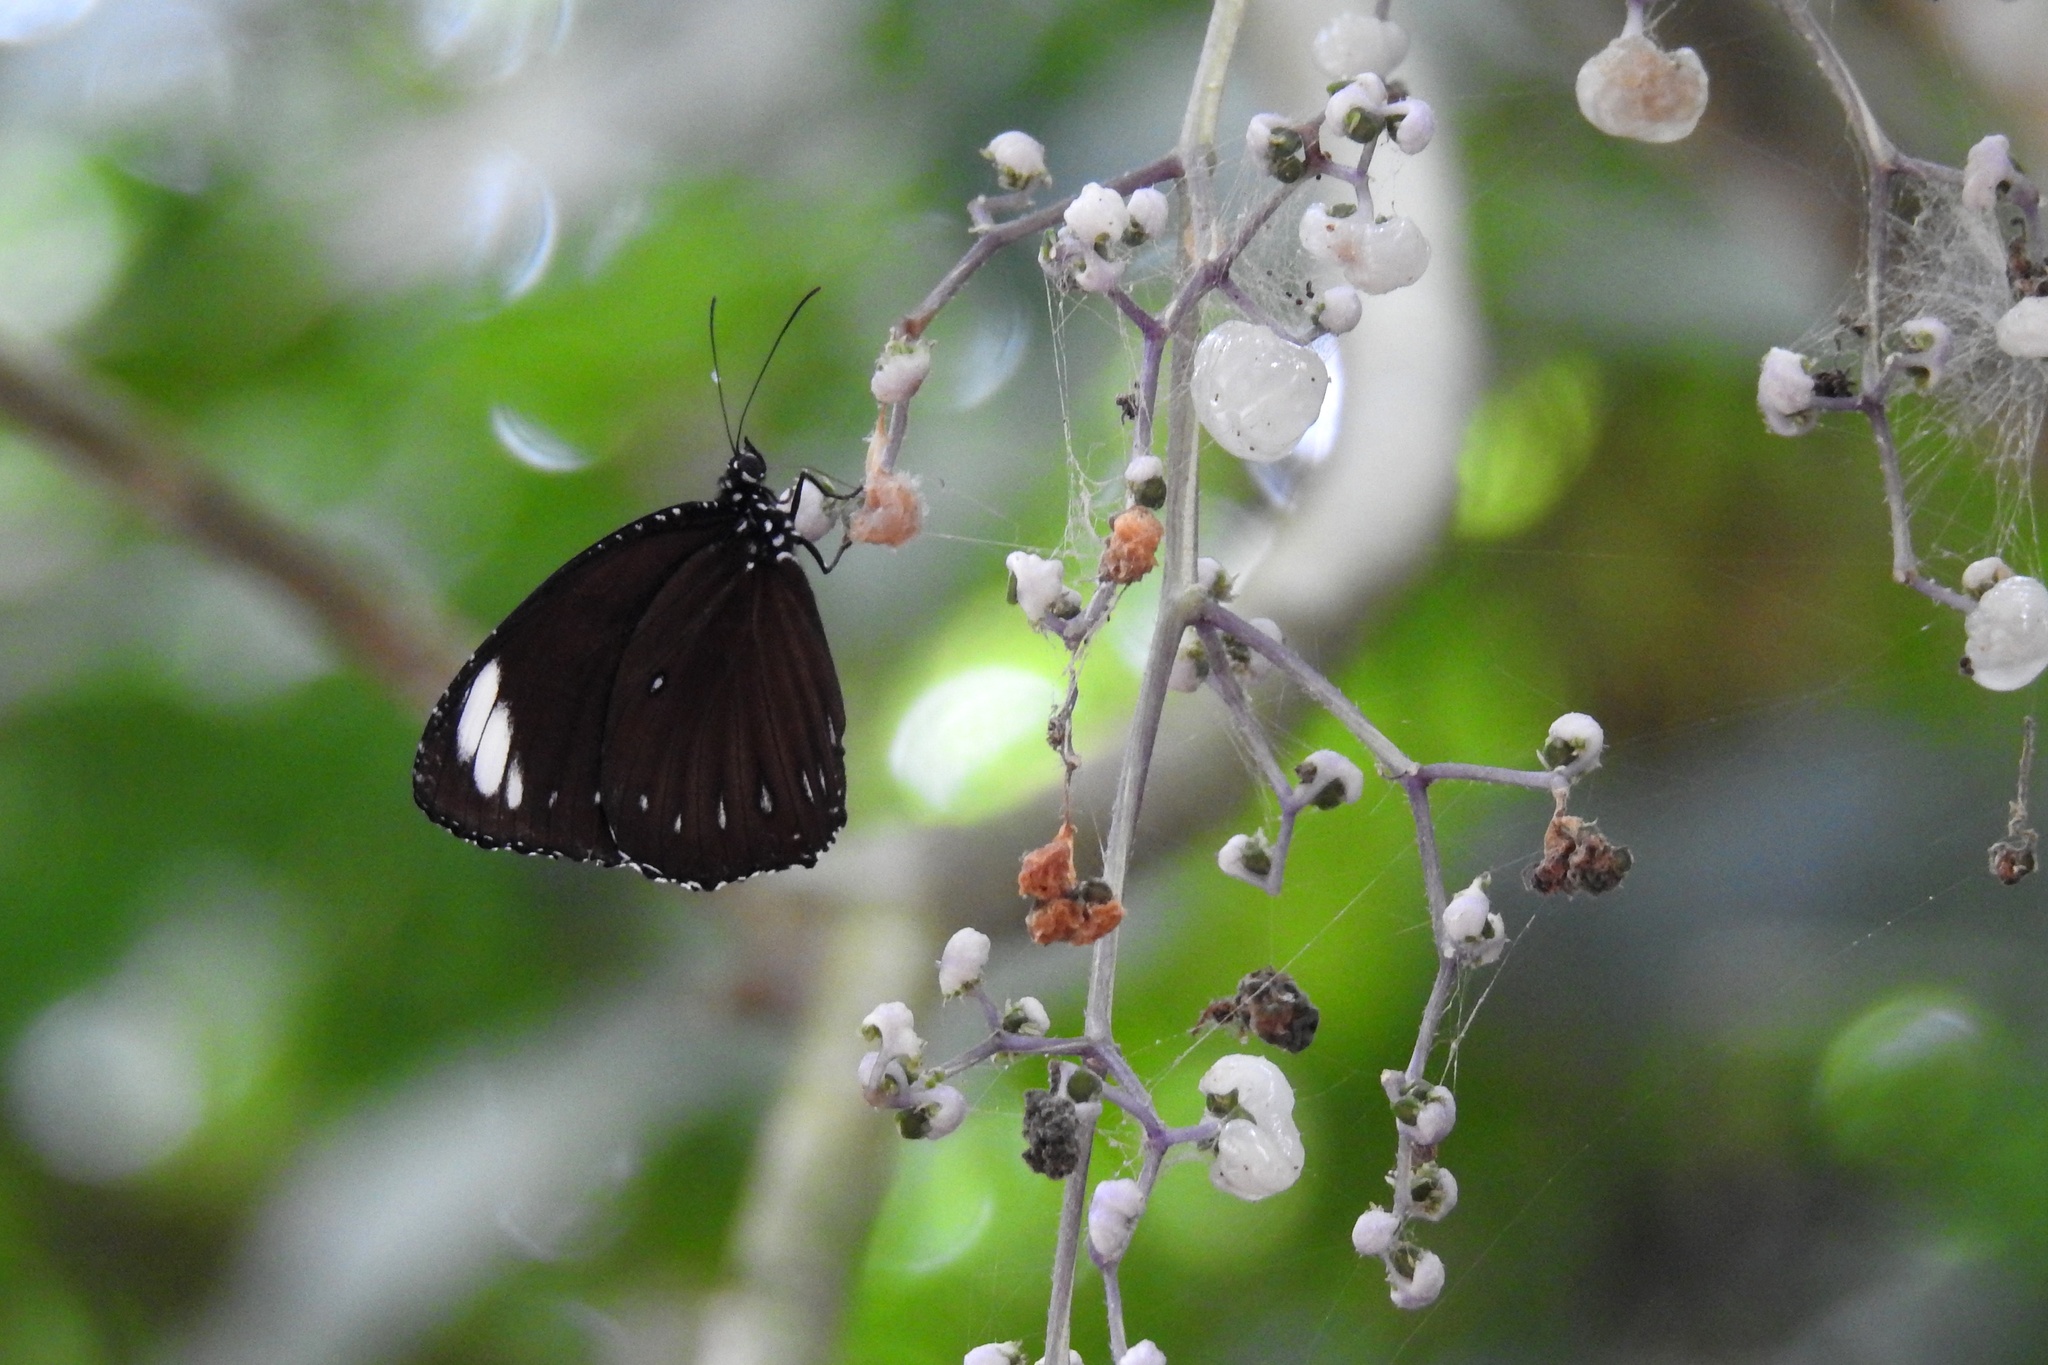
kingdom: Animalia
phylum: Arthropoda
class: Insecta
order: Lepidoptera
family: Nymphalidae
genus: Elymnias
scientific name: Elymnias melias
